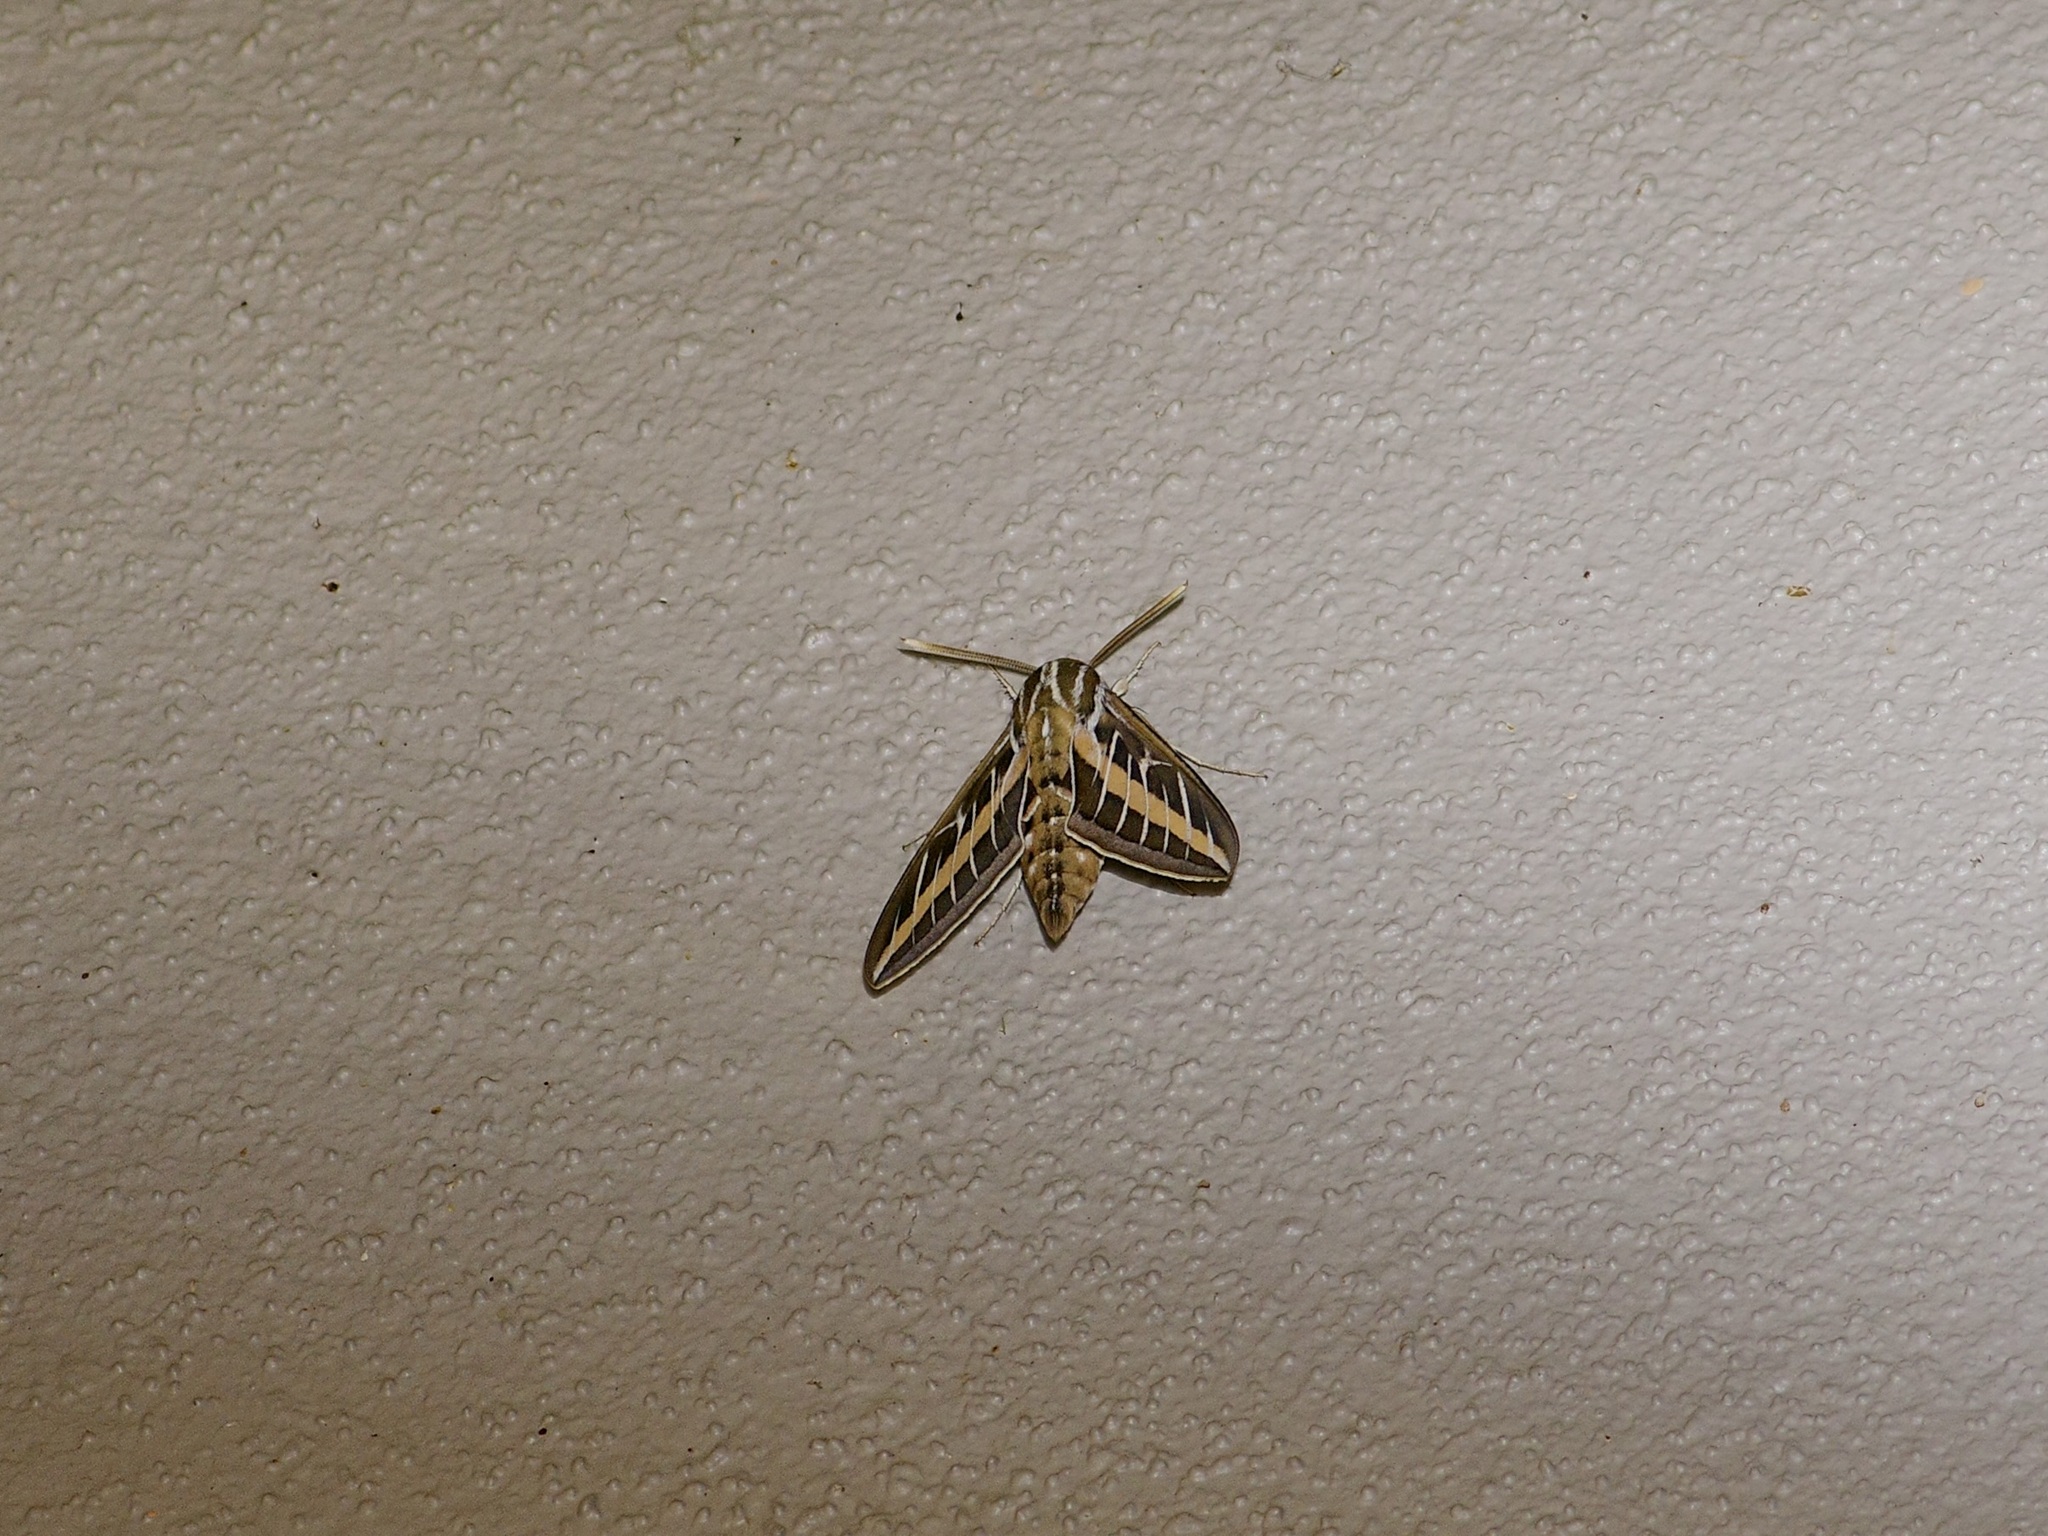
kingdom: Animalia
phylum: Arthropoda
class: Insecta
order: Lepidoptera
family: Sphingidae
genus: Hyles
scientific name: Hyles lineata
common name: White-lined sphinx
